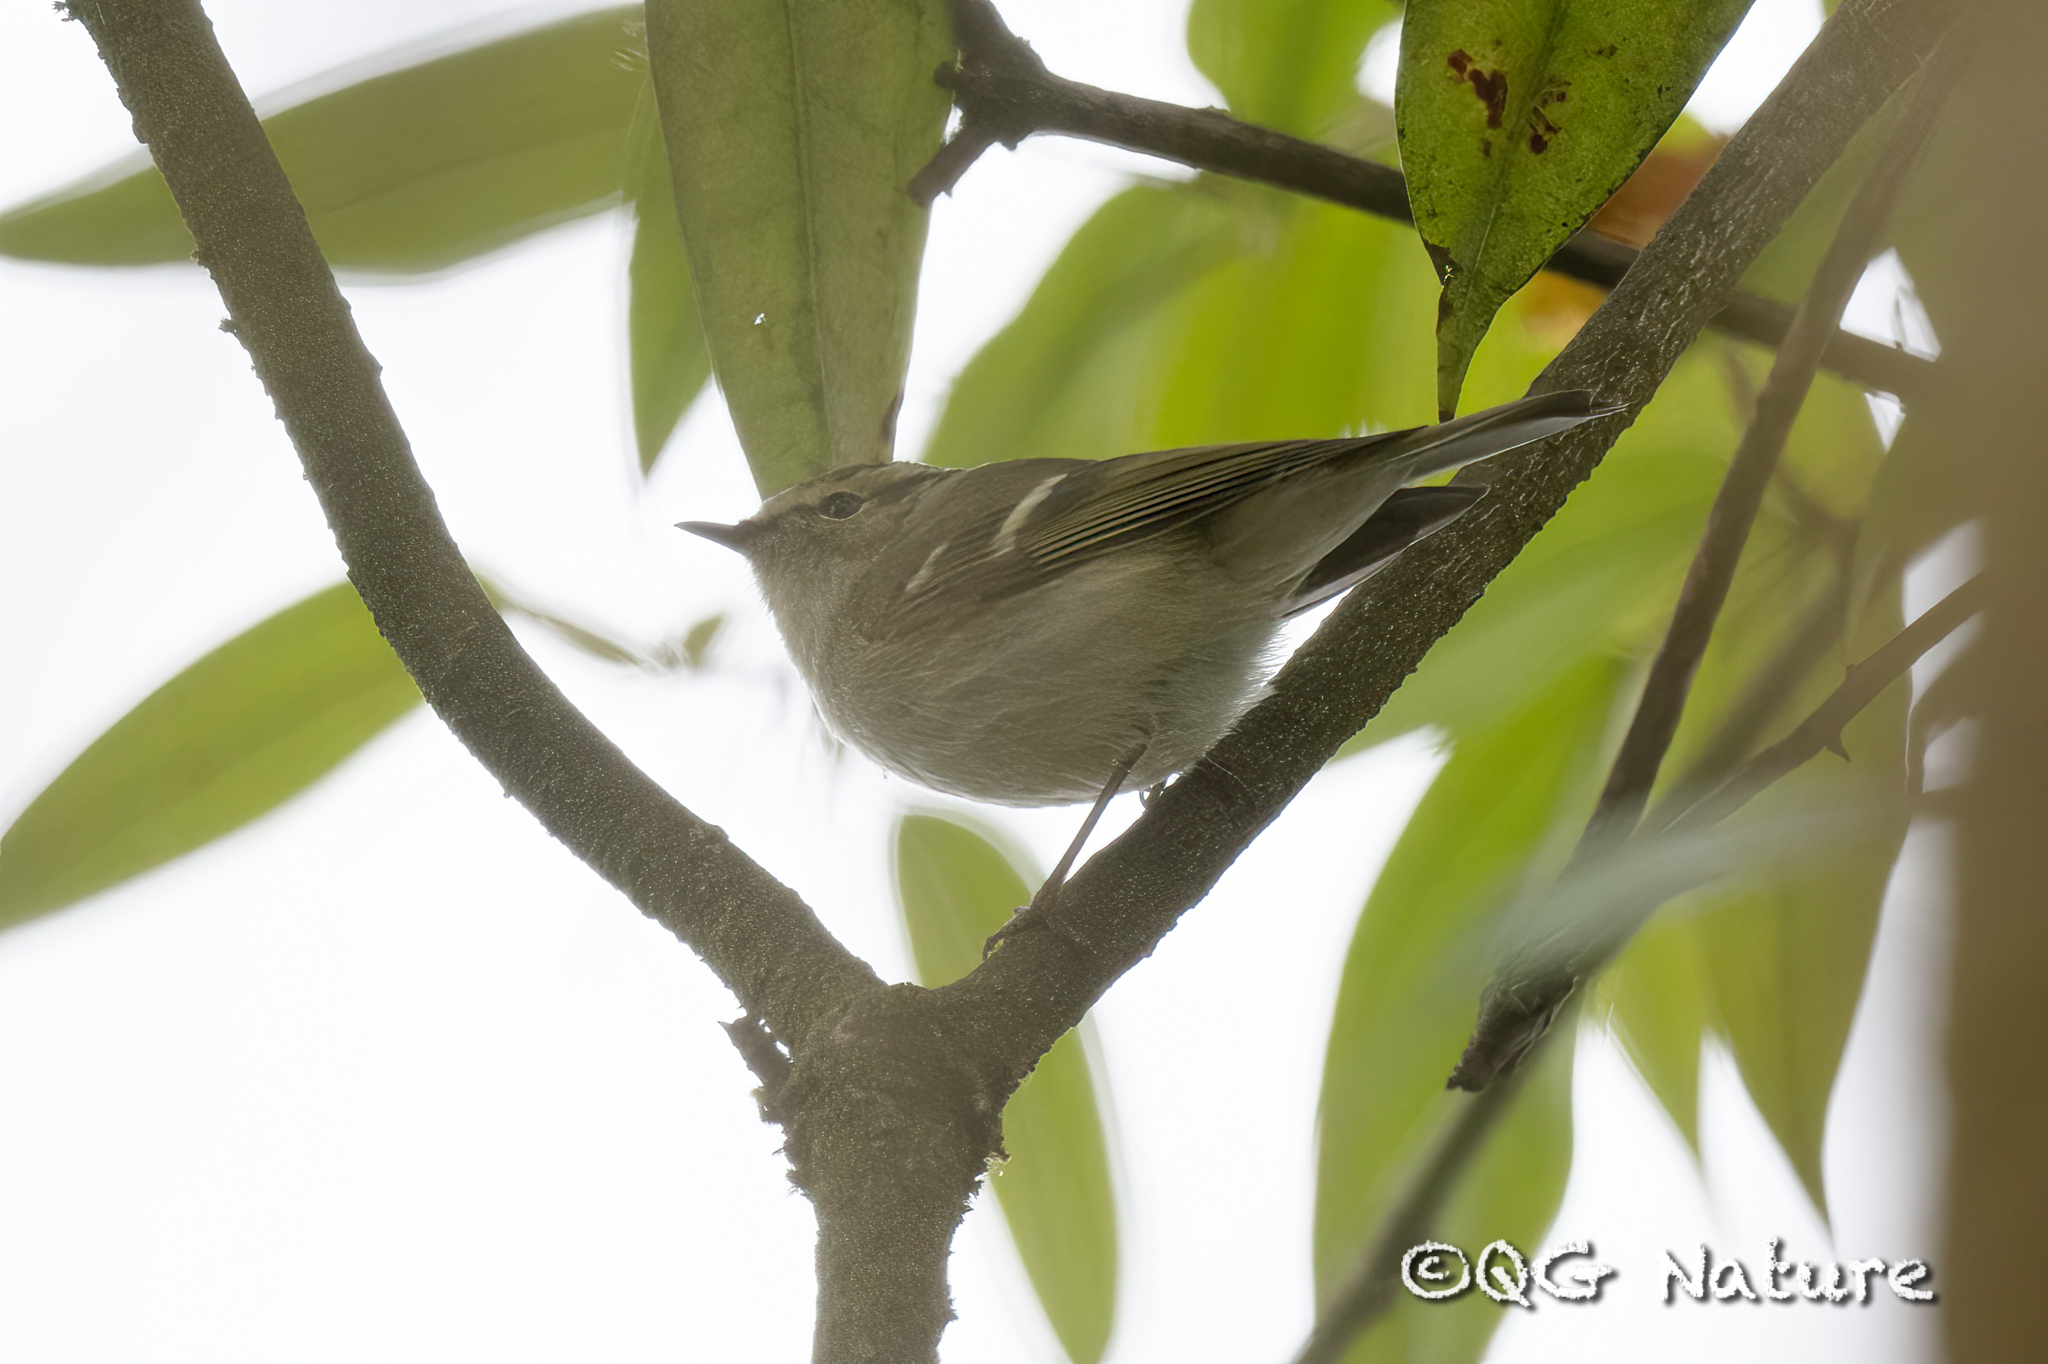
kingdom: Animalia
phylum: Chordata
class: Aves
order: Passeriformes
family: Phylloscopidae
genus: Phylloscopus
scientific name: Phylloscopus humei
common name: Hume's leaf warbler
